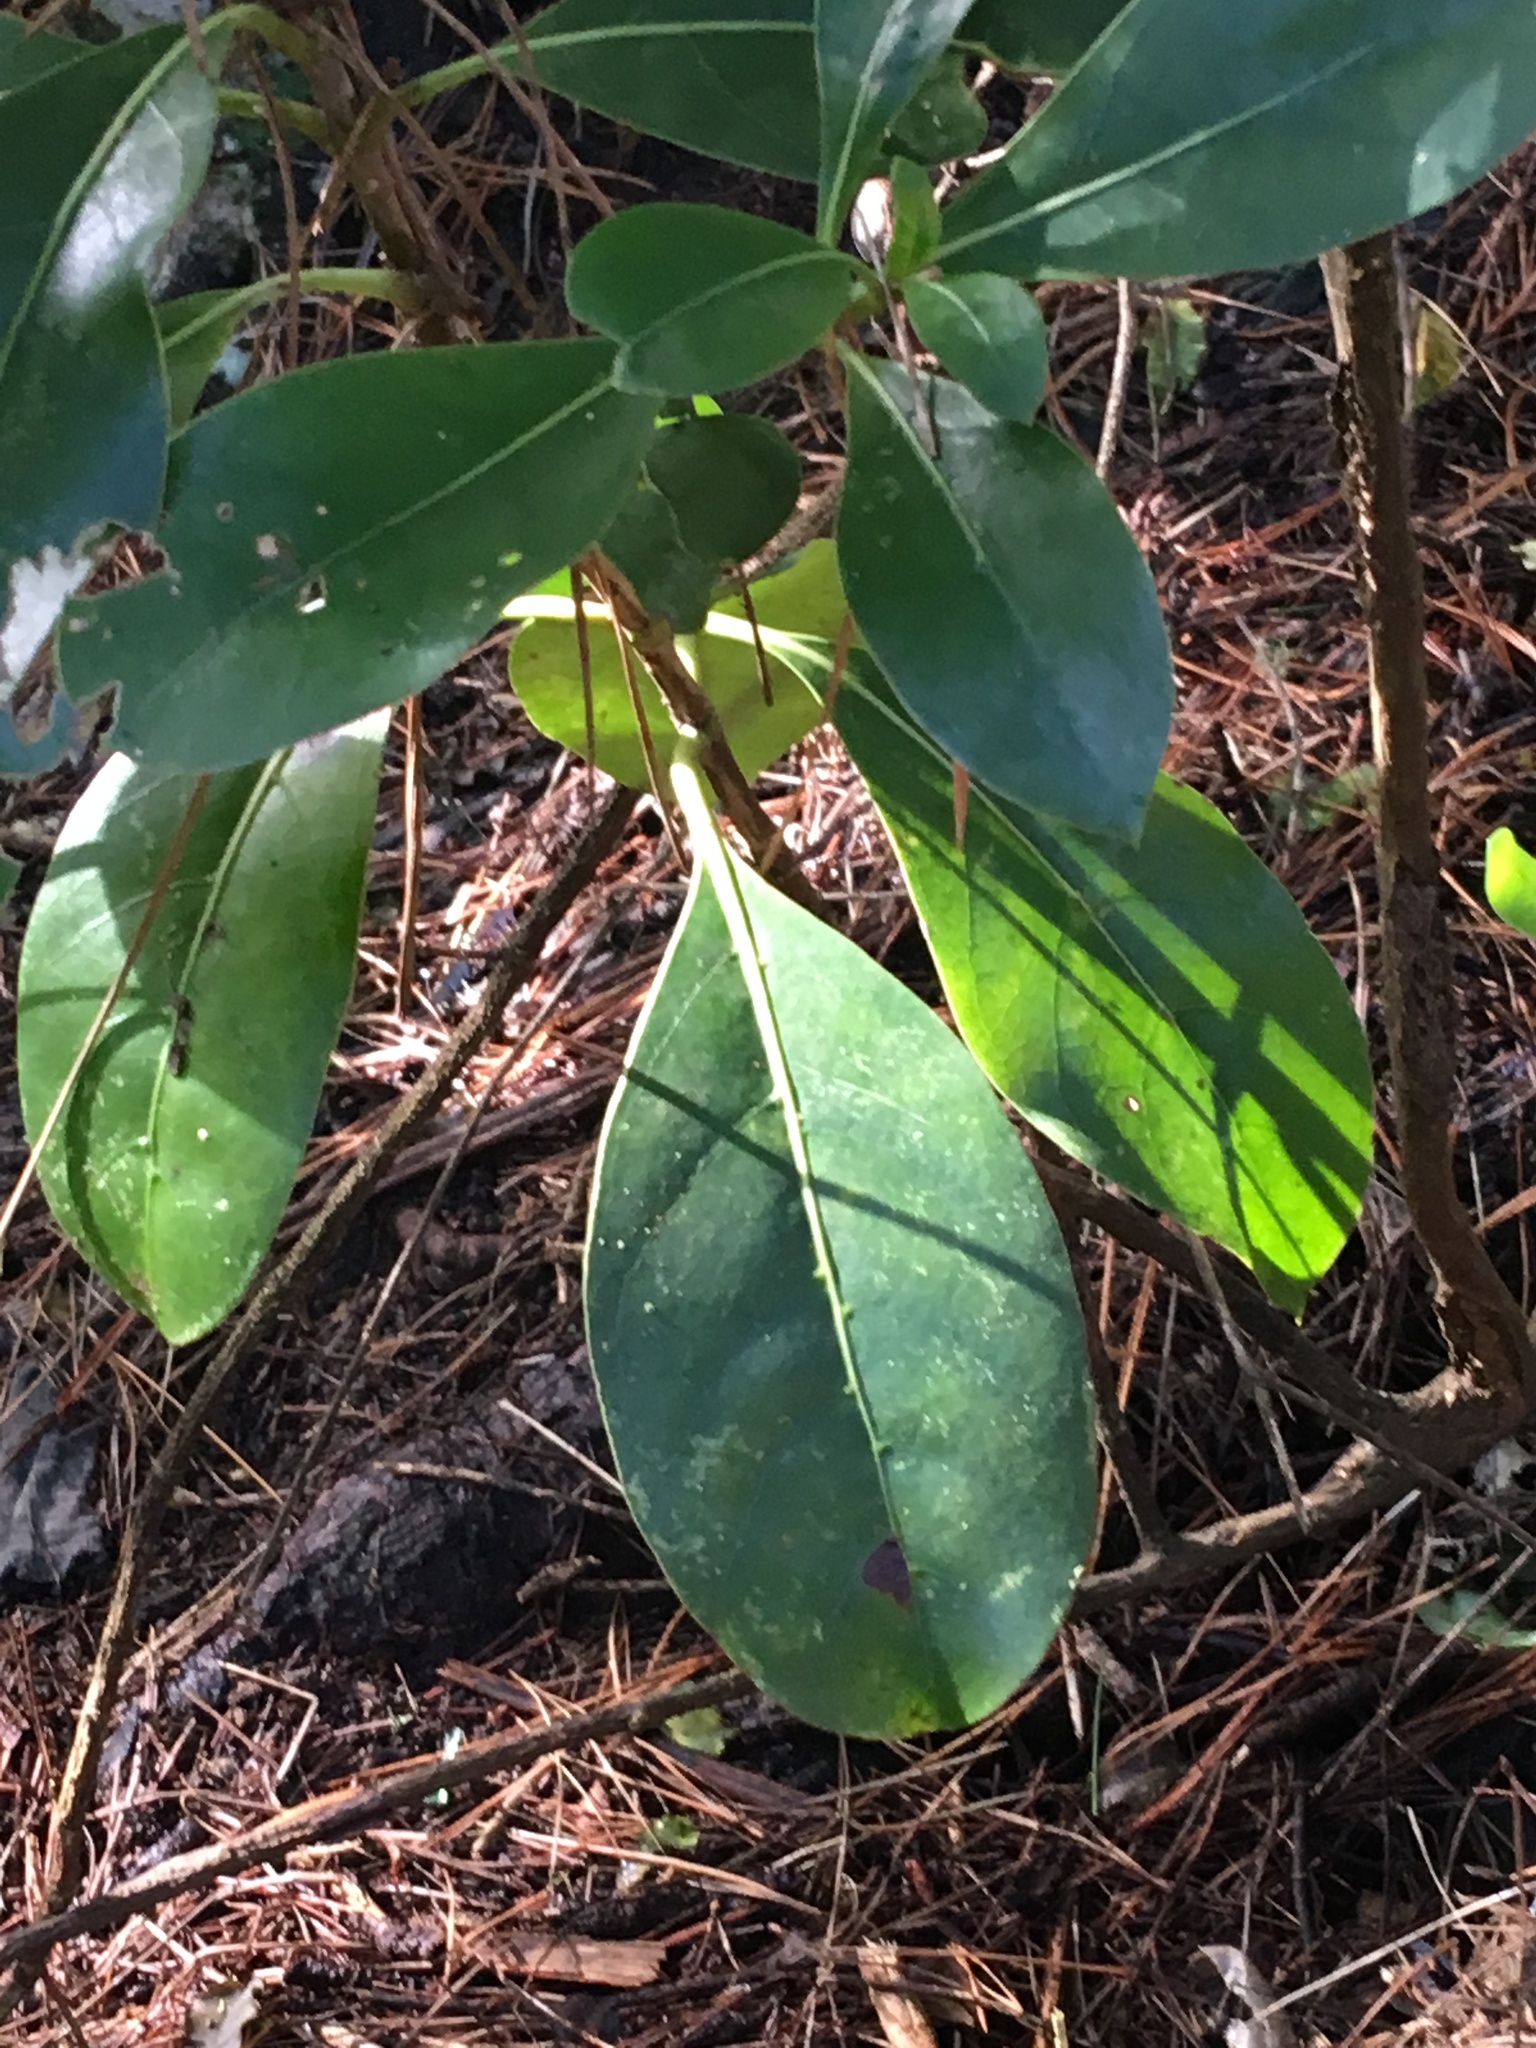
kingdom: Plantae
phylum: Tracheophyta
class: Magnoliopsida
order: Gentianales
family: Rubiaceae
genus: Coprosma
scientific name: Coprosma lucida
